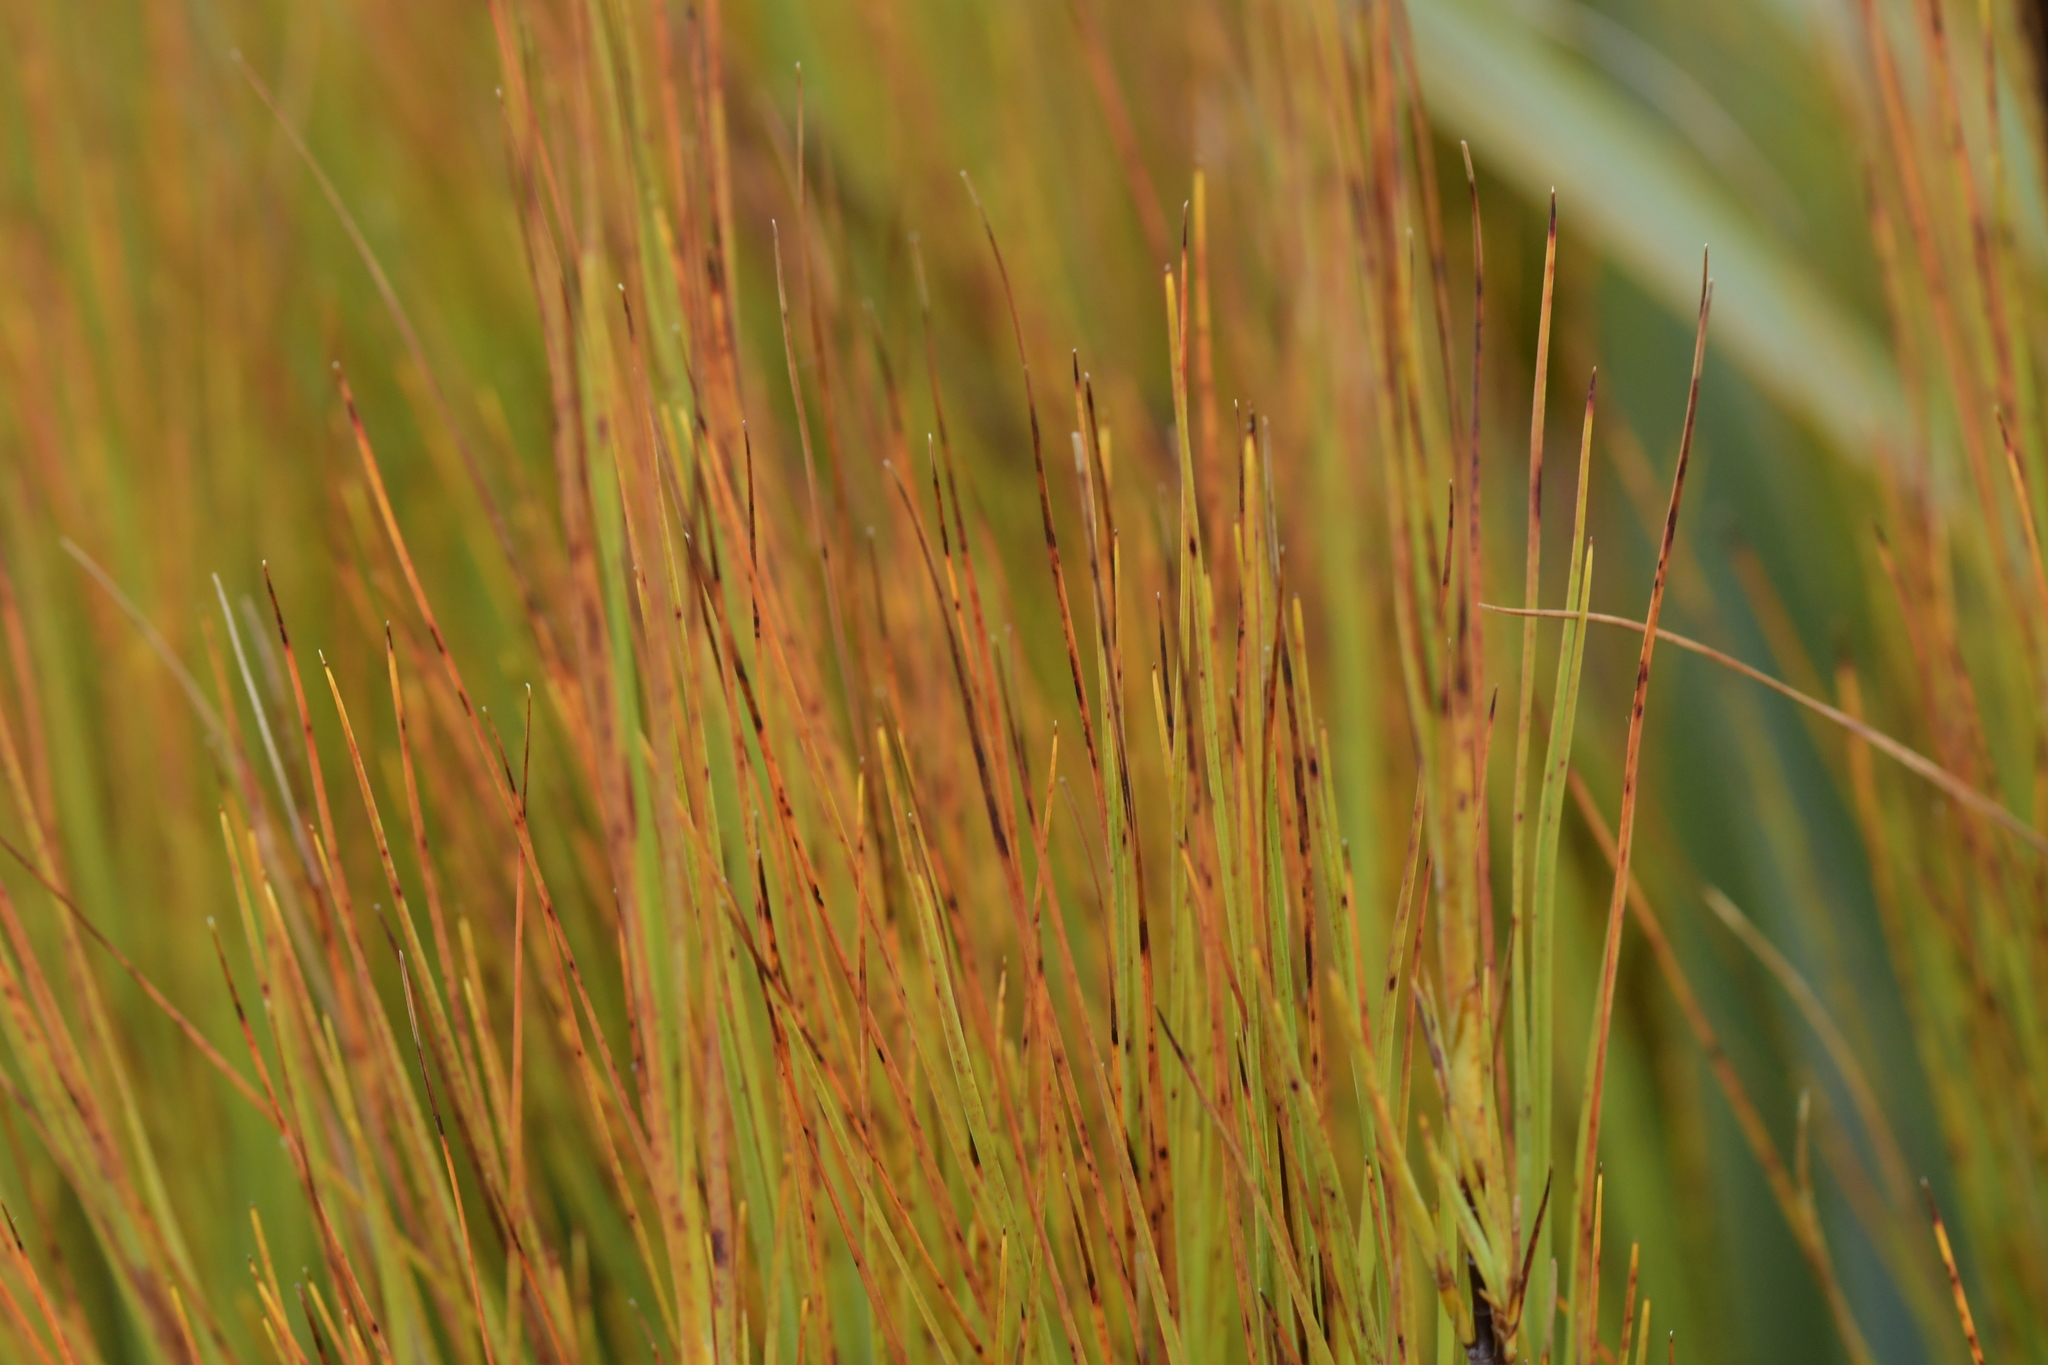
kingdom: Plantae
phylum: Tracheophyta
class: Magnoliopsida
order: Ericales
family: Ericaceae
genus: Dracophyllum
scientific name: Dracophyllum filifolium
